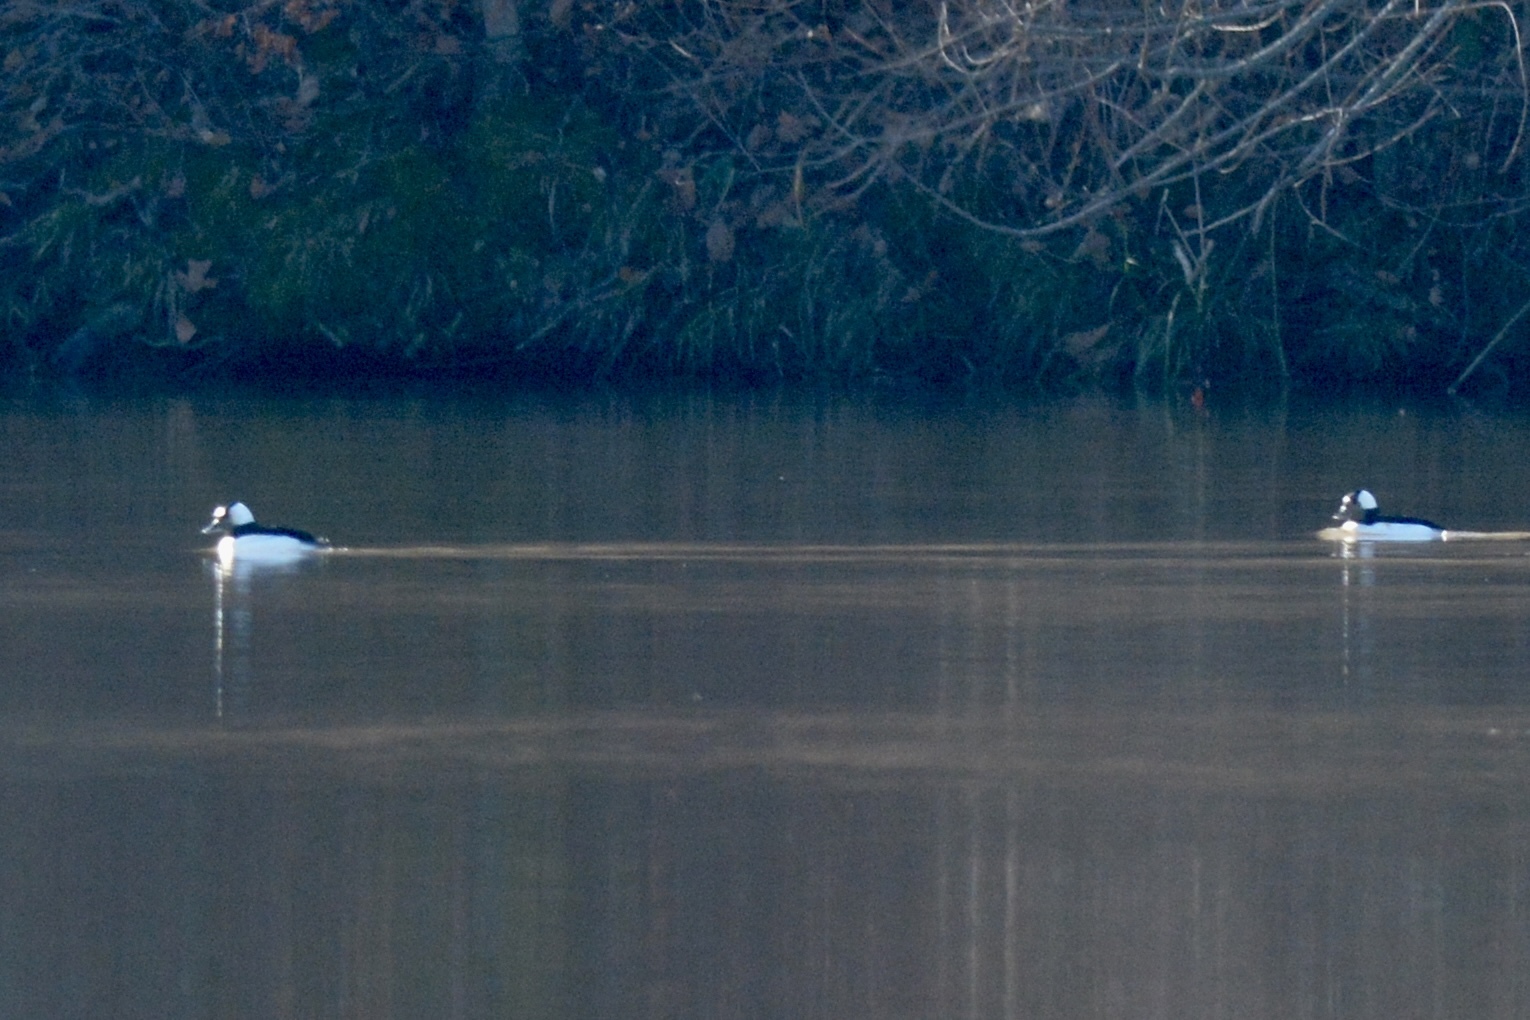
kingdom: Animalia
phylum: Chordata
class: Aves
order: Anseriformes
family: Anatidae
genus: Bucephala
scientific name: Bucephala albeola
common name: Bufflehead
